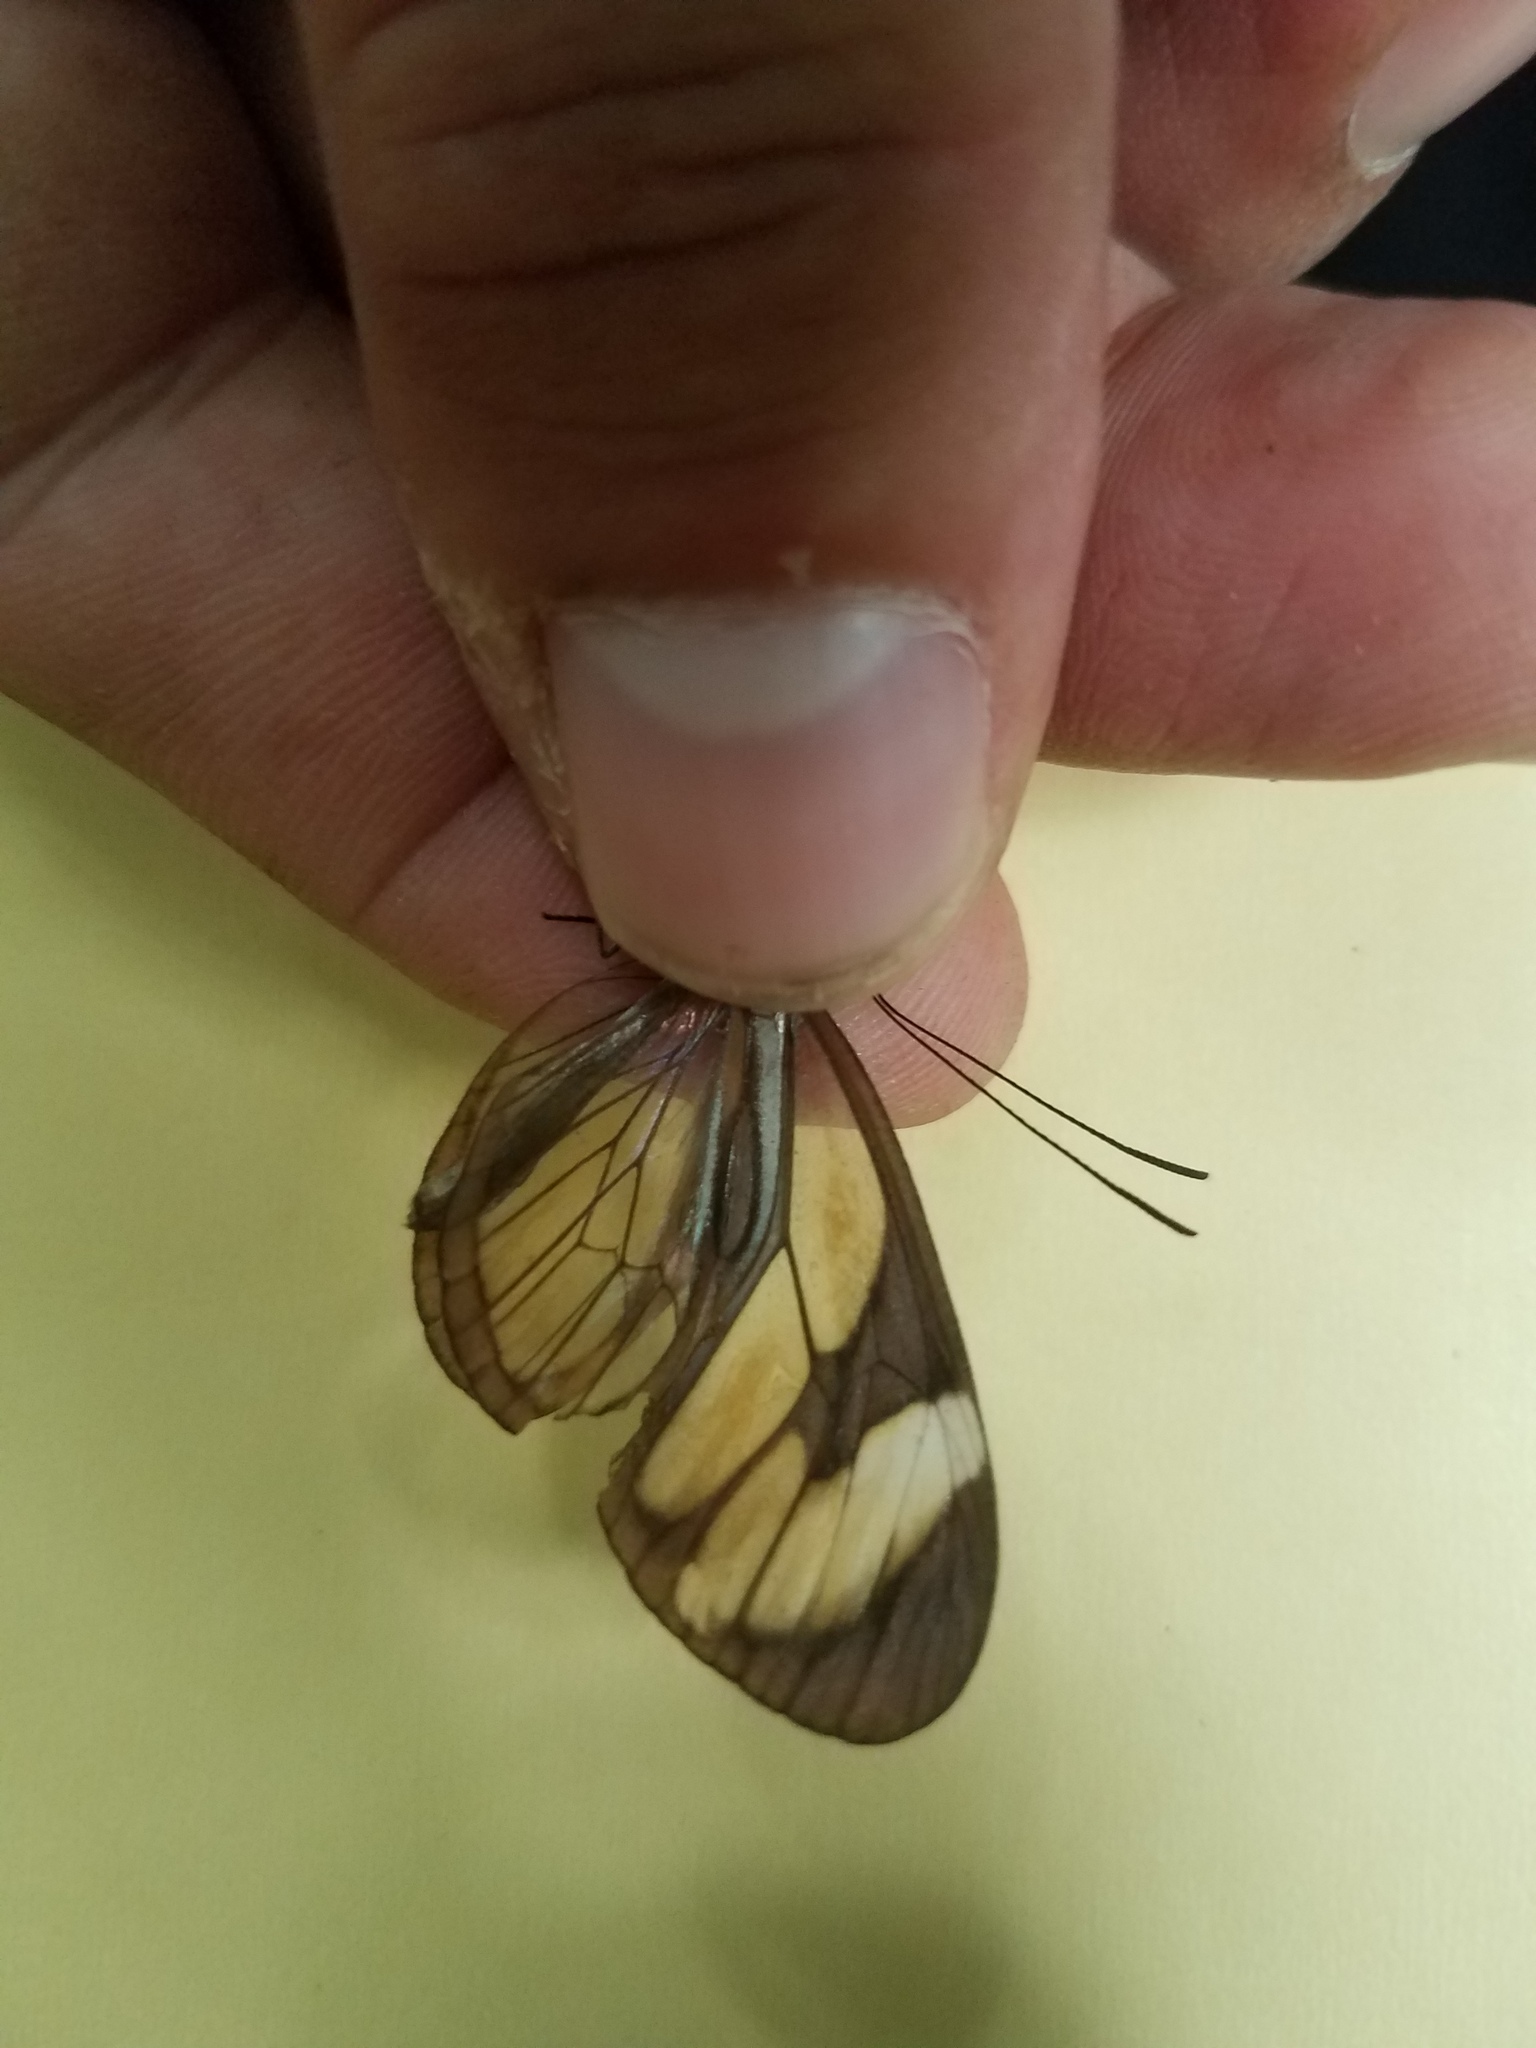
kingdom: Animalia
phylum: Arthropoda
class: Insecta
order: Lepidoptera
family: Nymphalidae
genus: Ithomia
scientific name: Ithomia patilla
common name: Patilla clearwing
